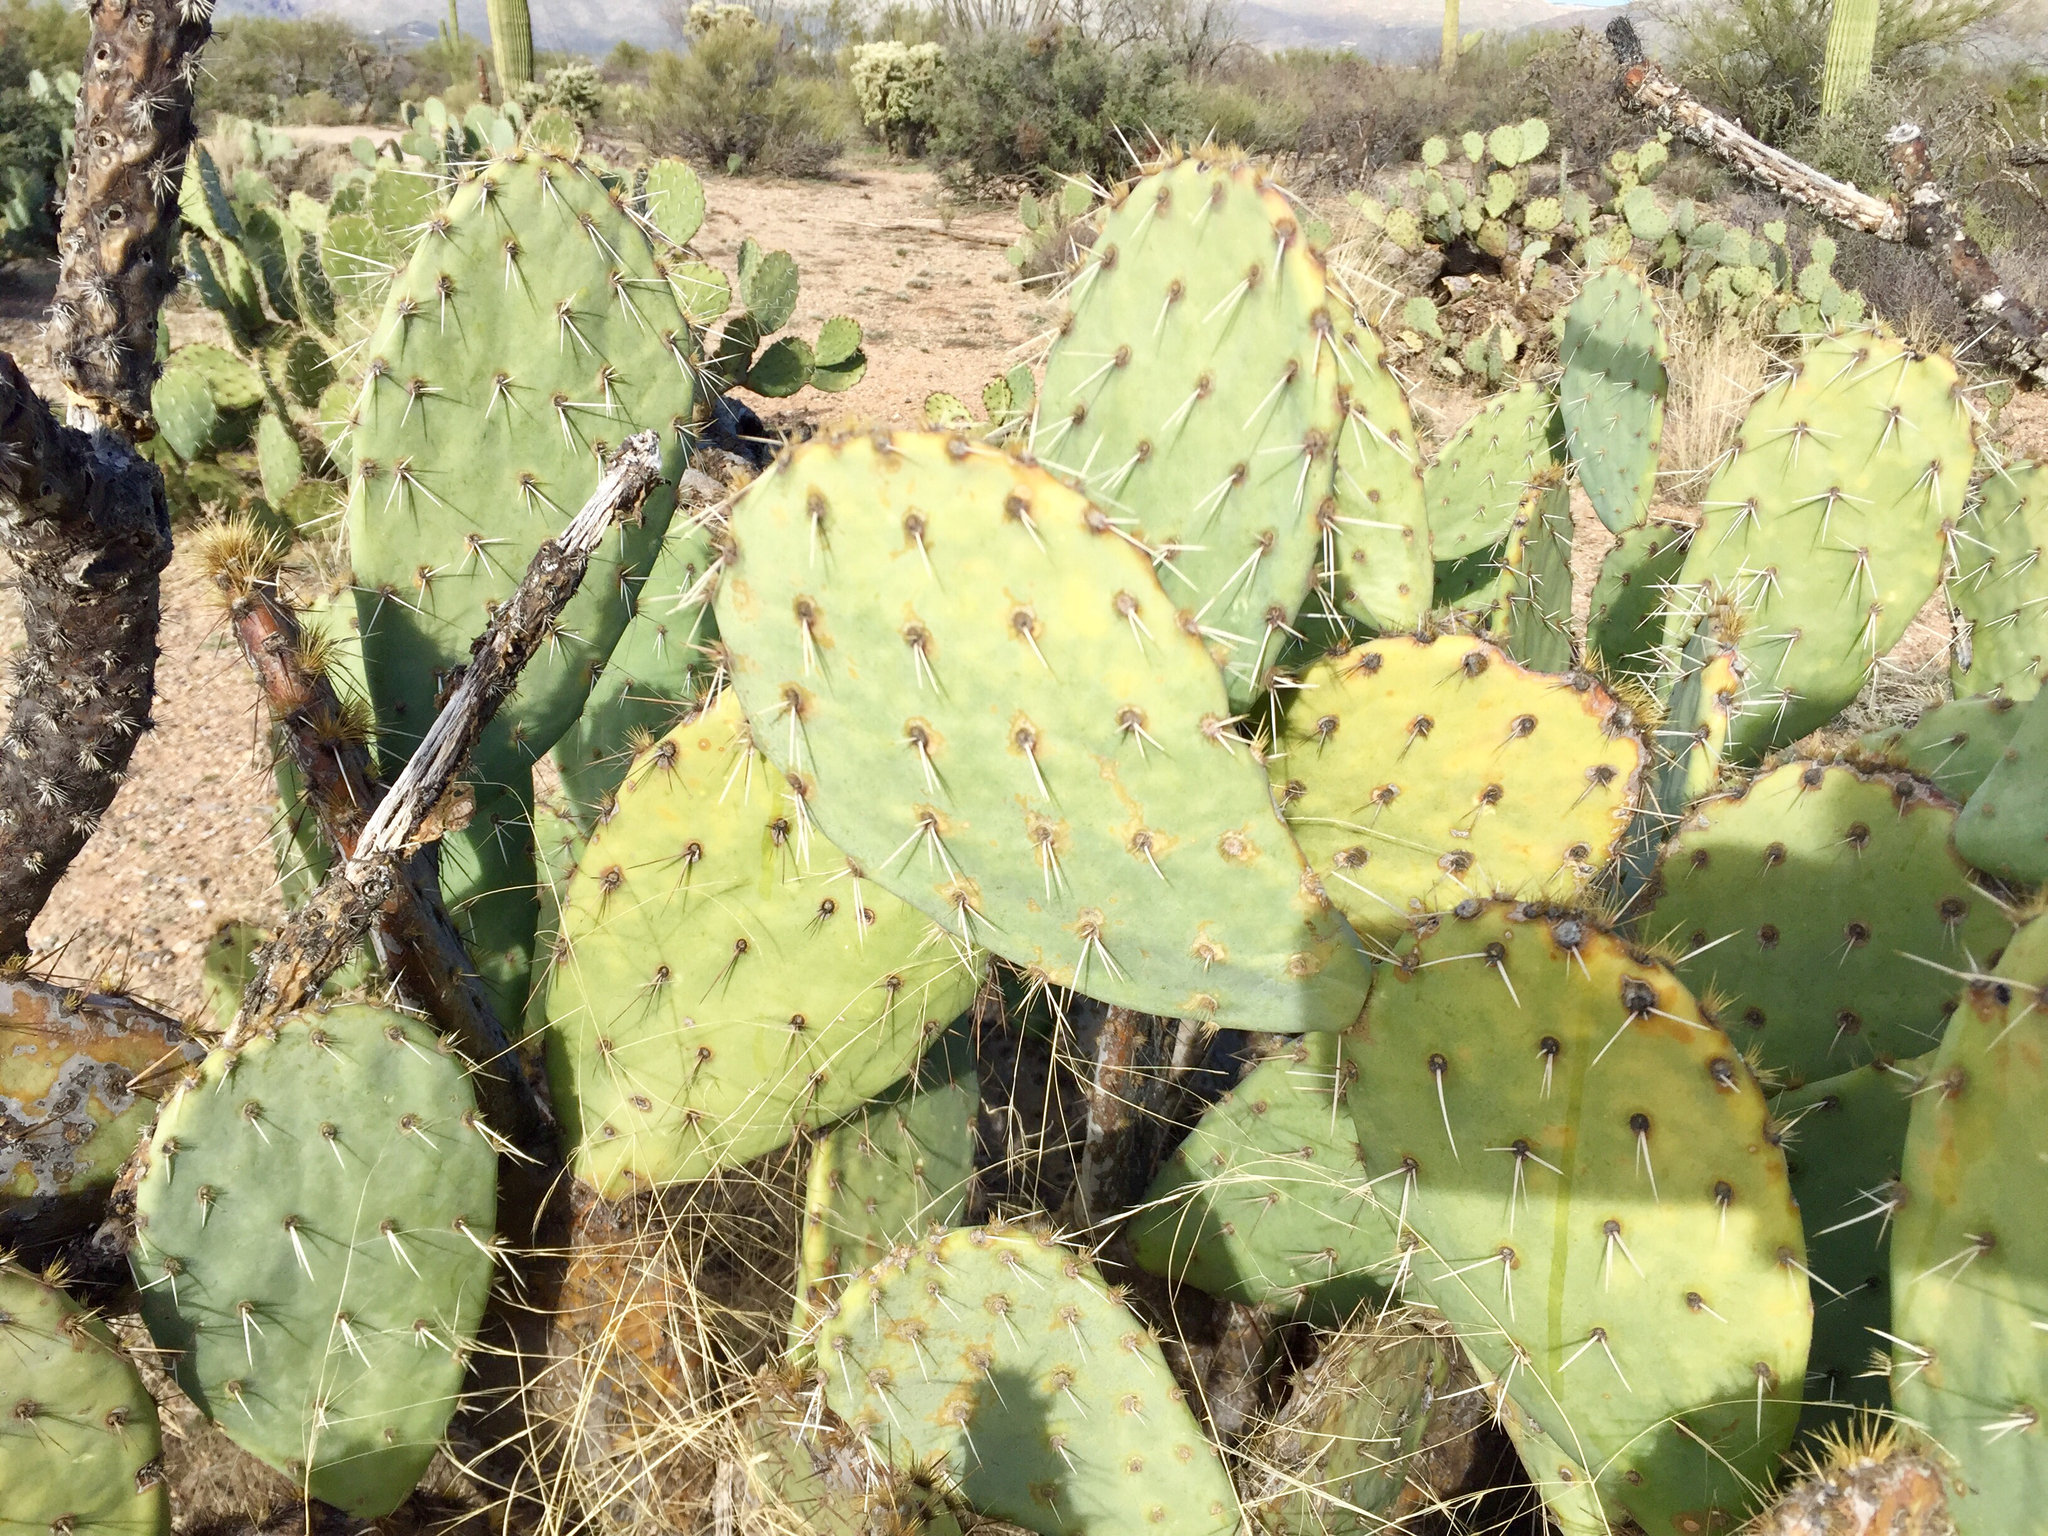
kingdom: Plantae
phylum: Tracheophyta
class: Magnoliopsida
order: Caryophyllales
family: Cactaceae
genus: Opuntia
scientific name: Opuntia engelmannii
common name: Cactus-apple
